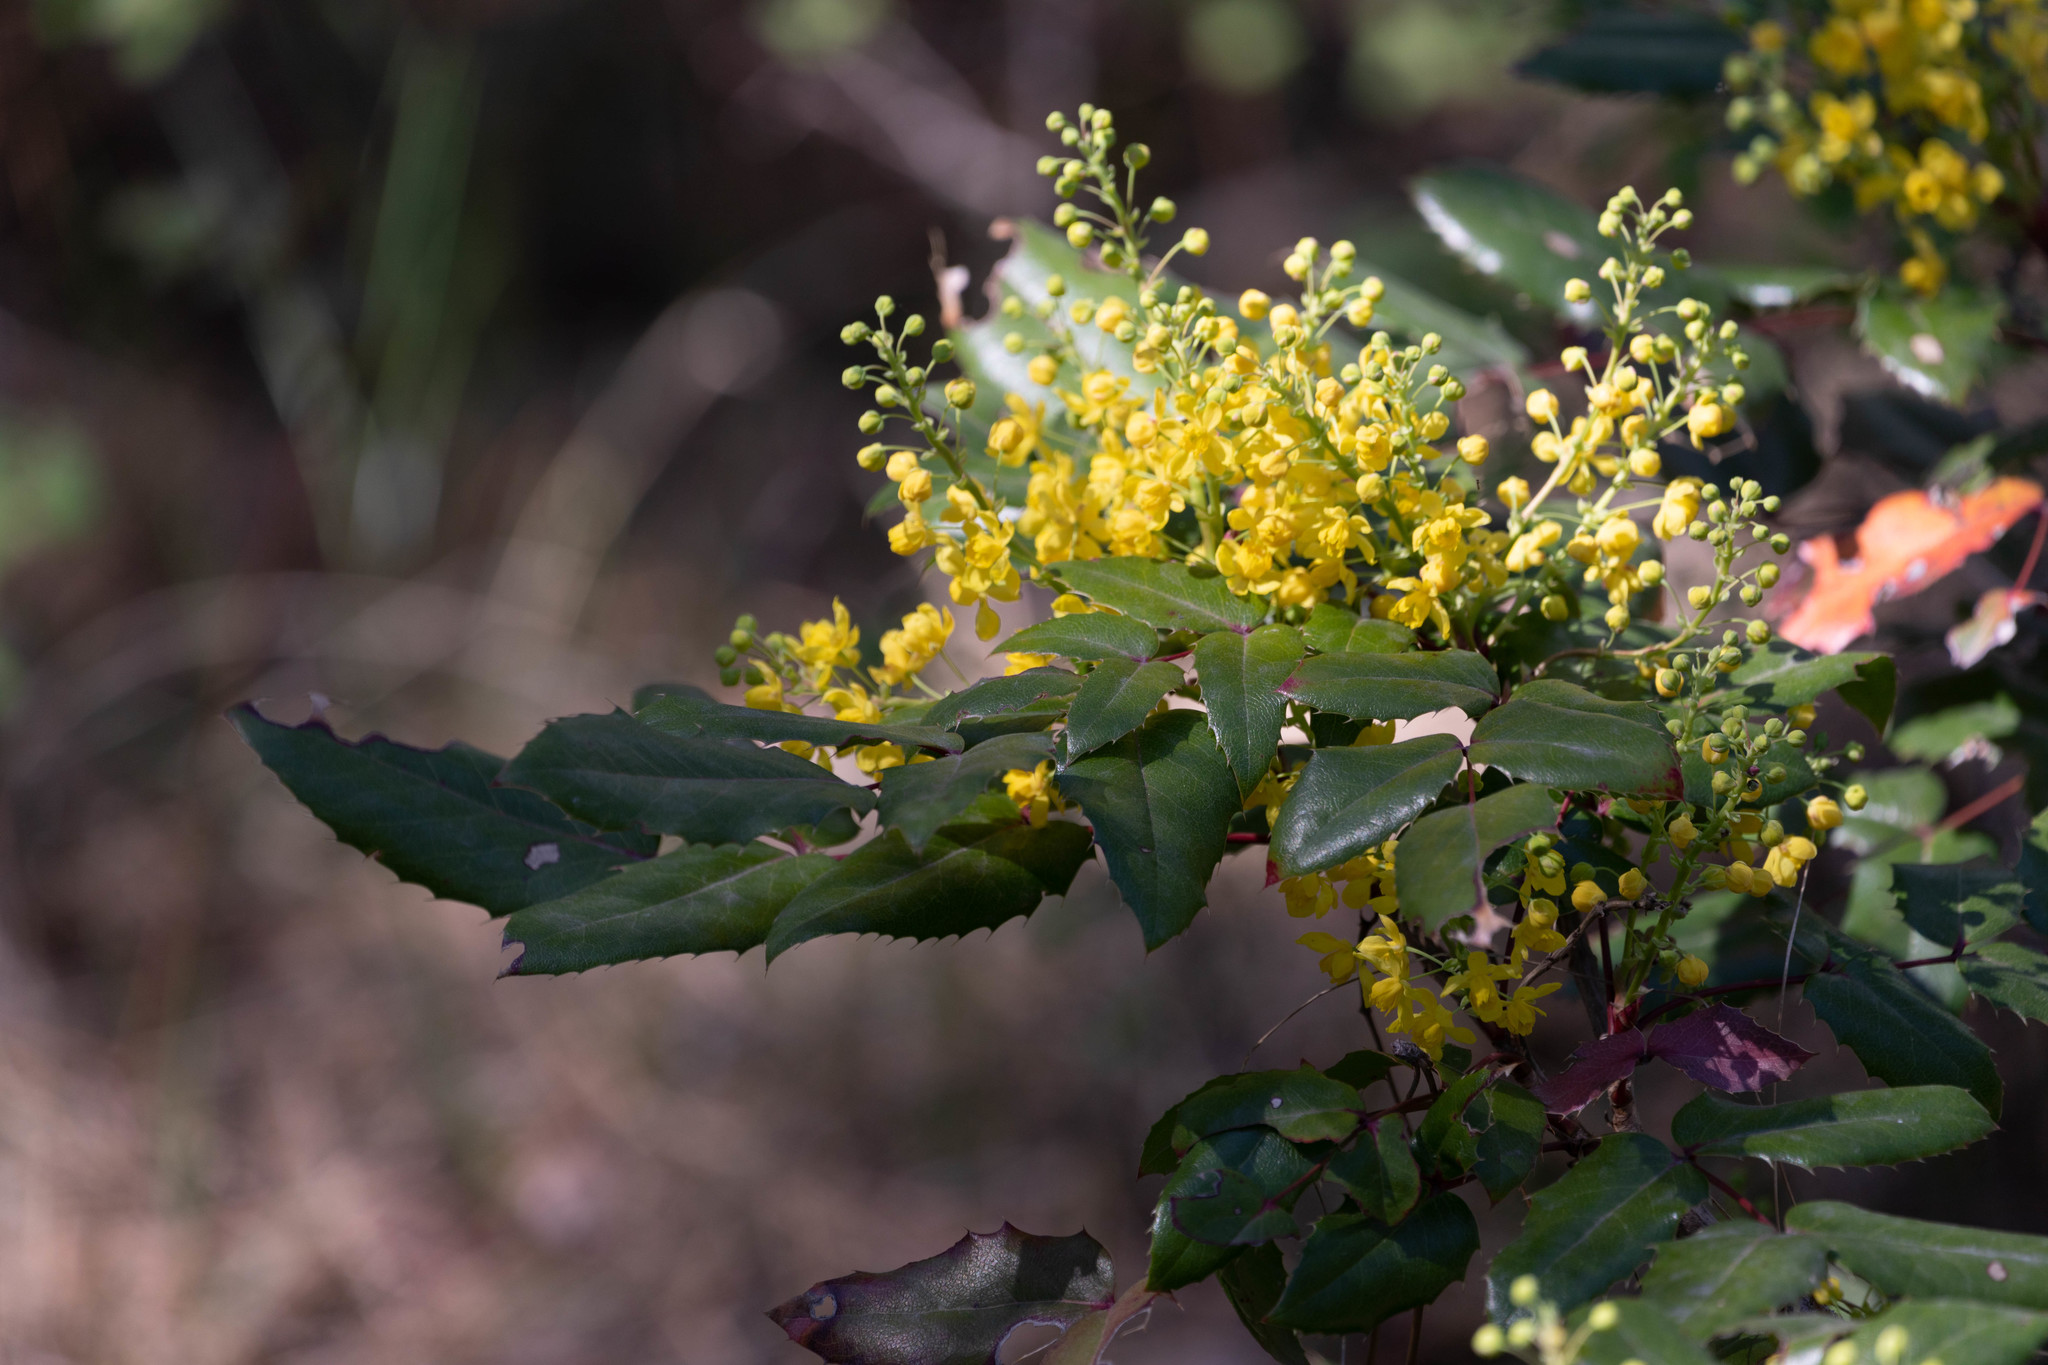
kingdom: Plantae
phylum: Tracheophyta
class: Magnoliopsida
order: Ranunculales
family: Berberidaceae
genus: Mahonia
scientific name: Mahonia aquifolium
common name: Oregon-grape
